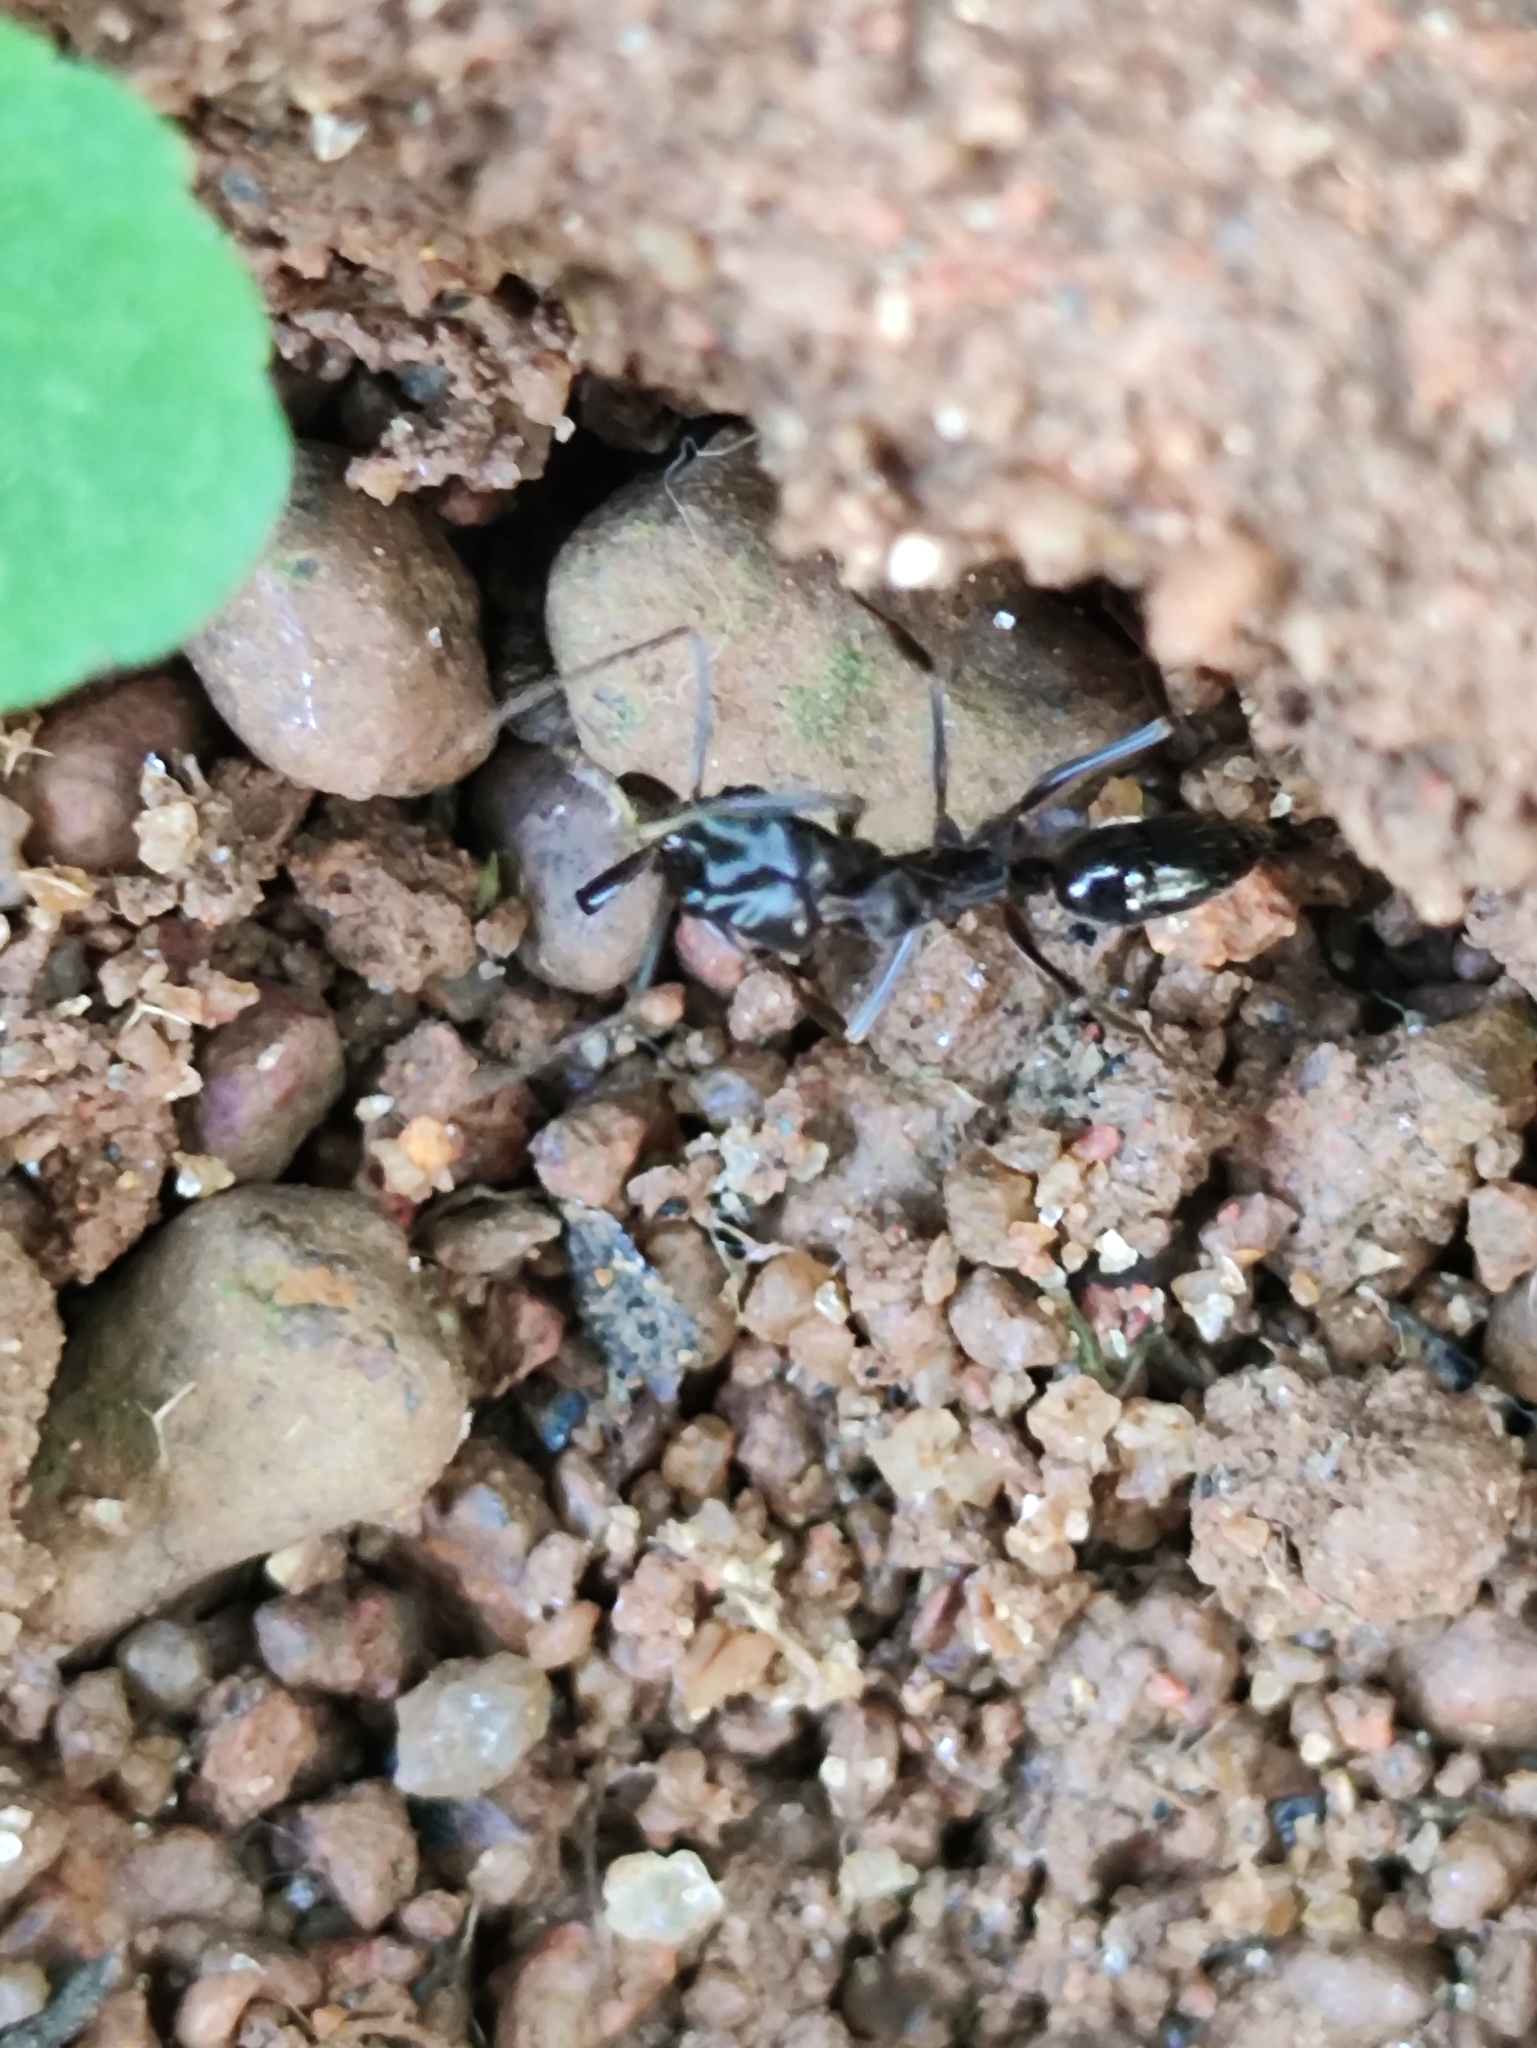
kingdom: Animalia
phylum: Arthropoda
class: Insecta
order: Hymenoptera
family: Formicidae
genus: Odontomachus
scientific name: Odontomachus simillimus
